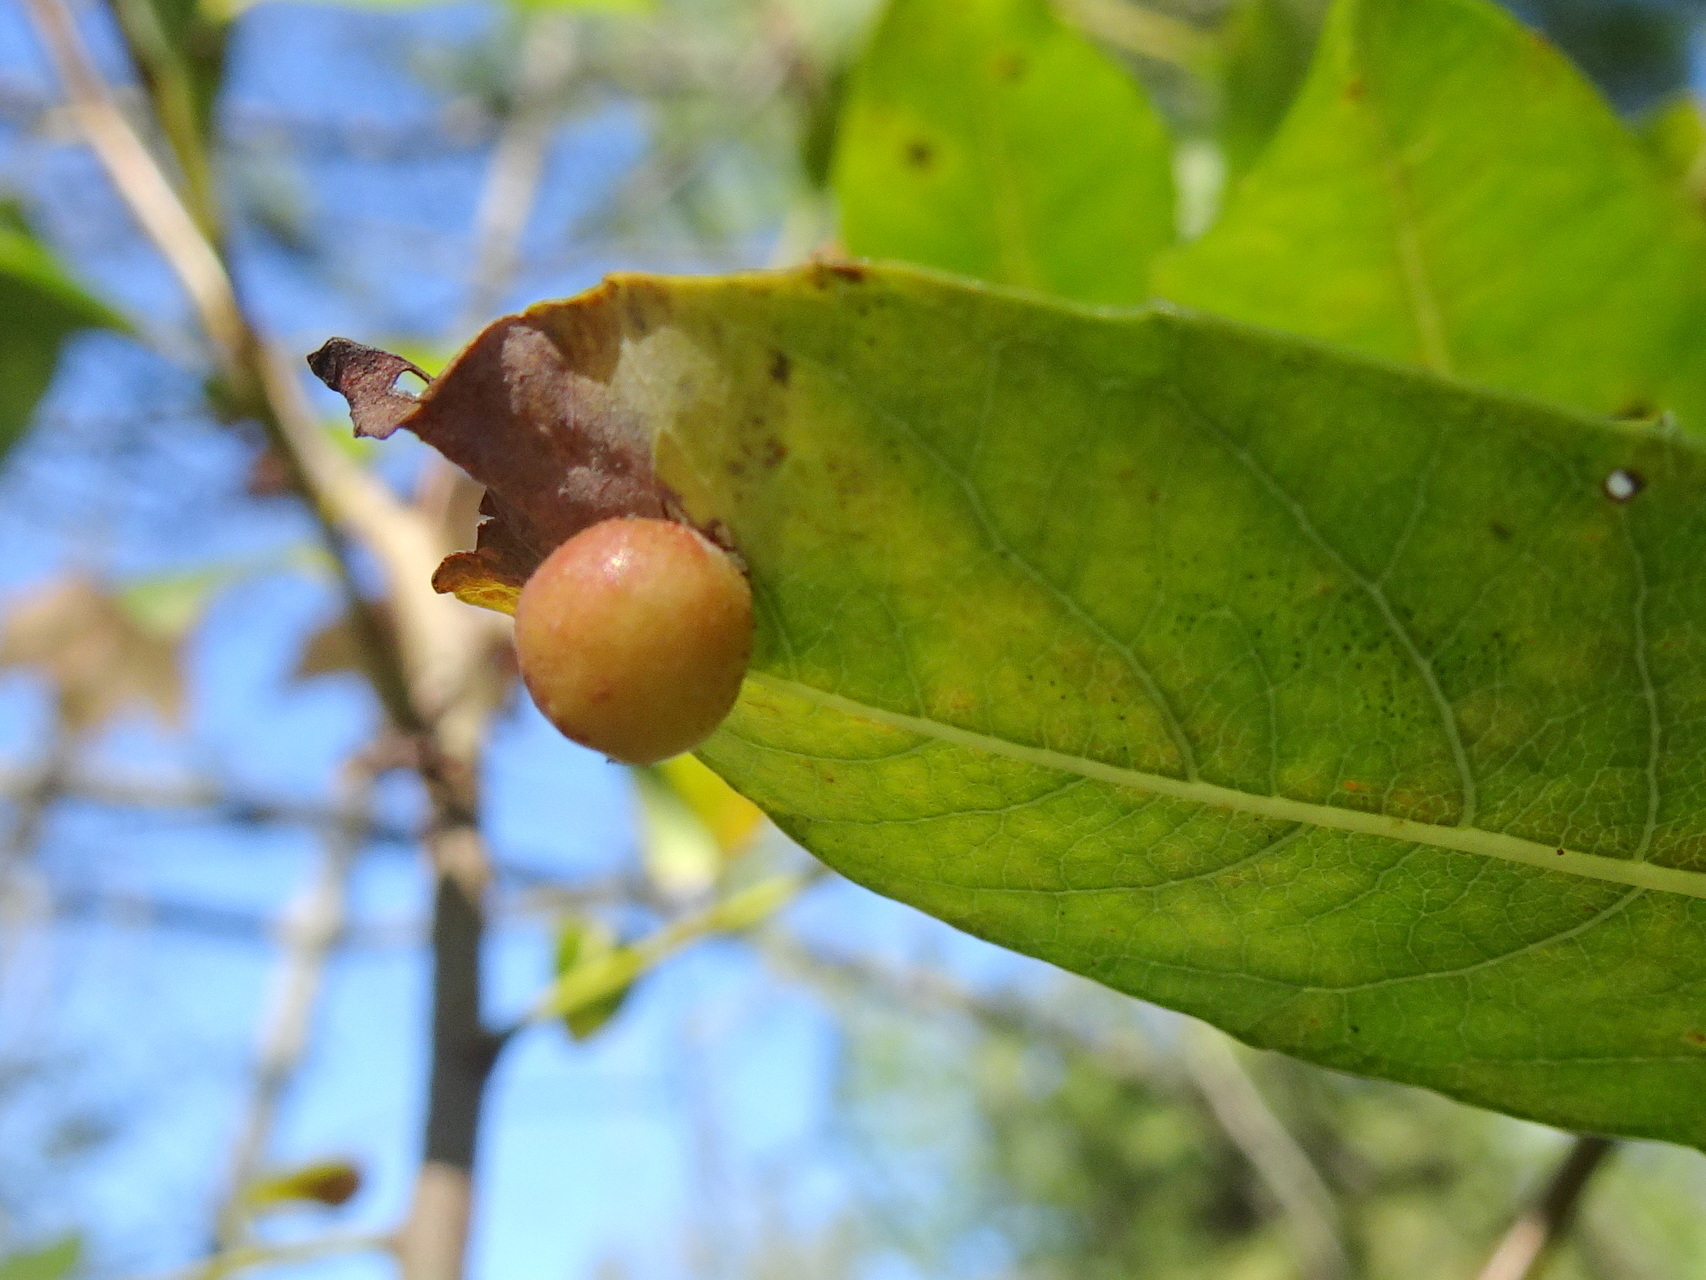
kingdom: Animalia
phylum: Arthropoda
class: Insecta
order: Hymenoptera
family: Tenthredinidae
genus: Euura
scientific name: Euura
